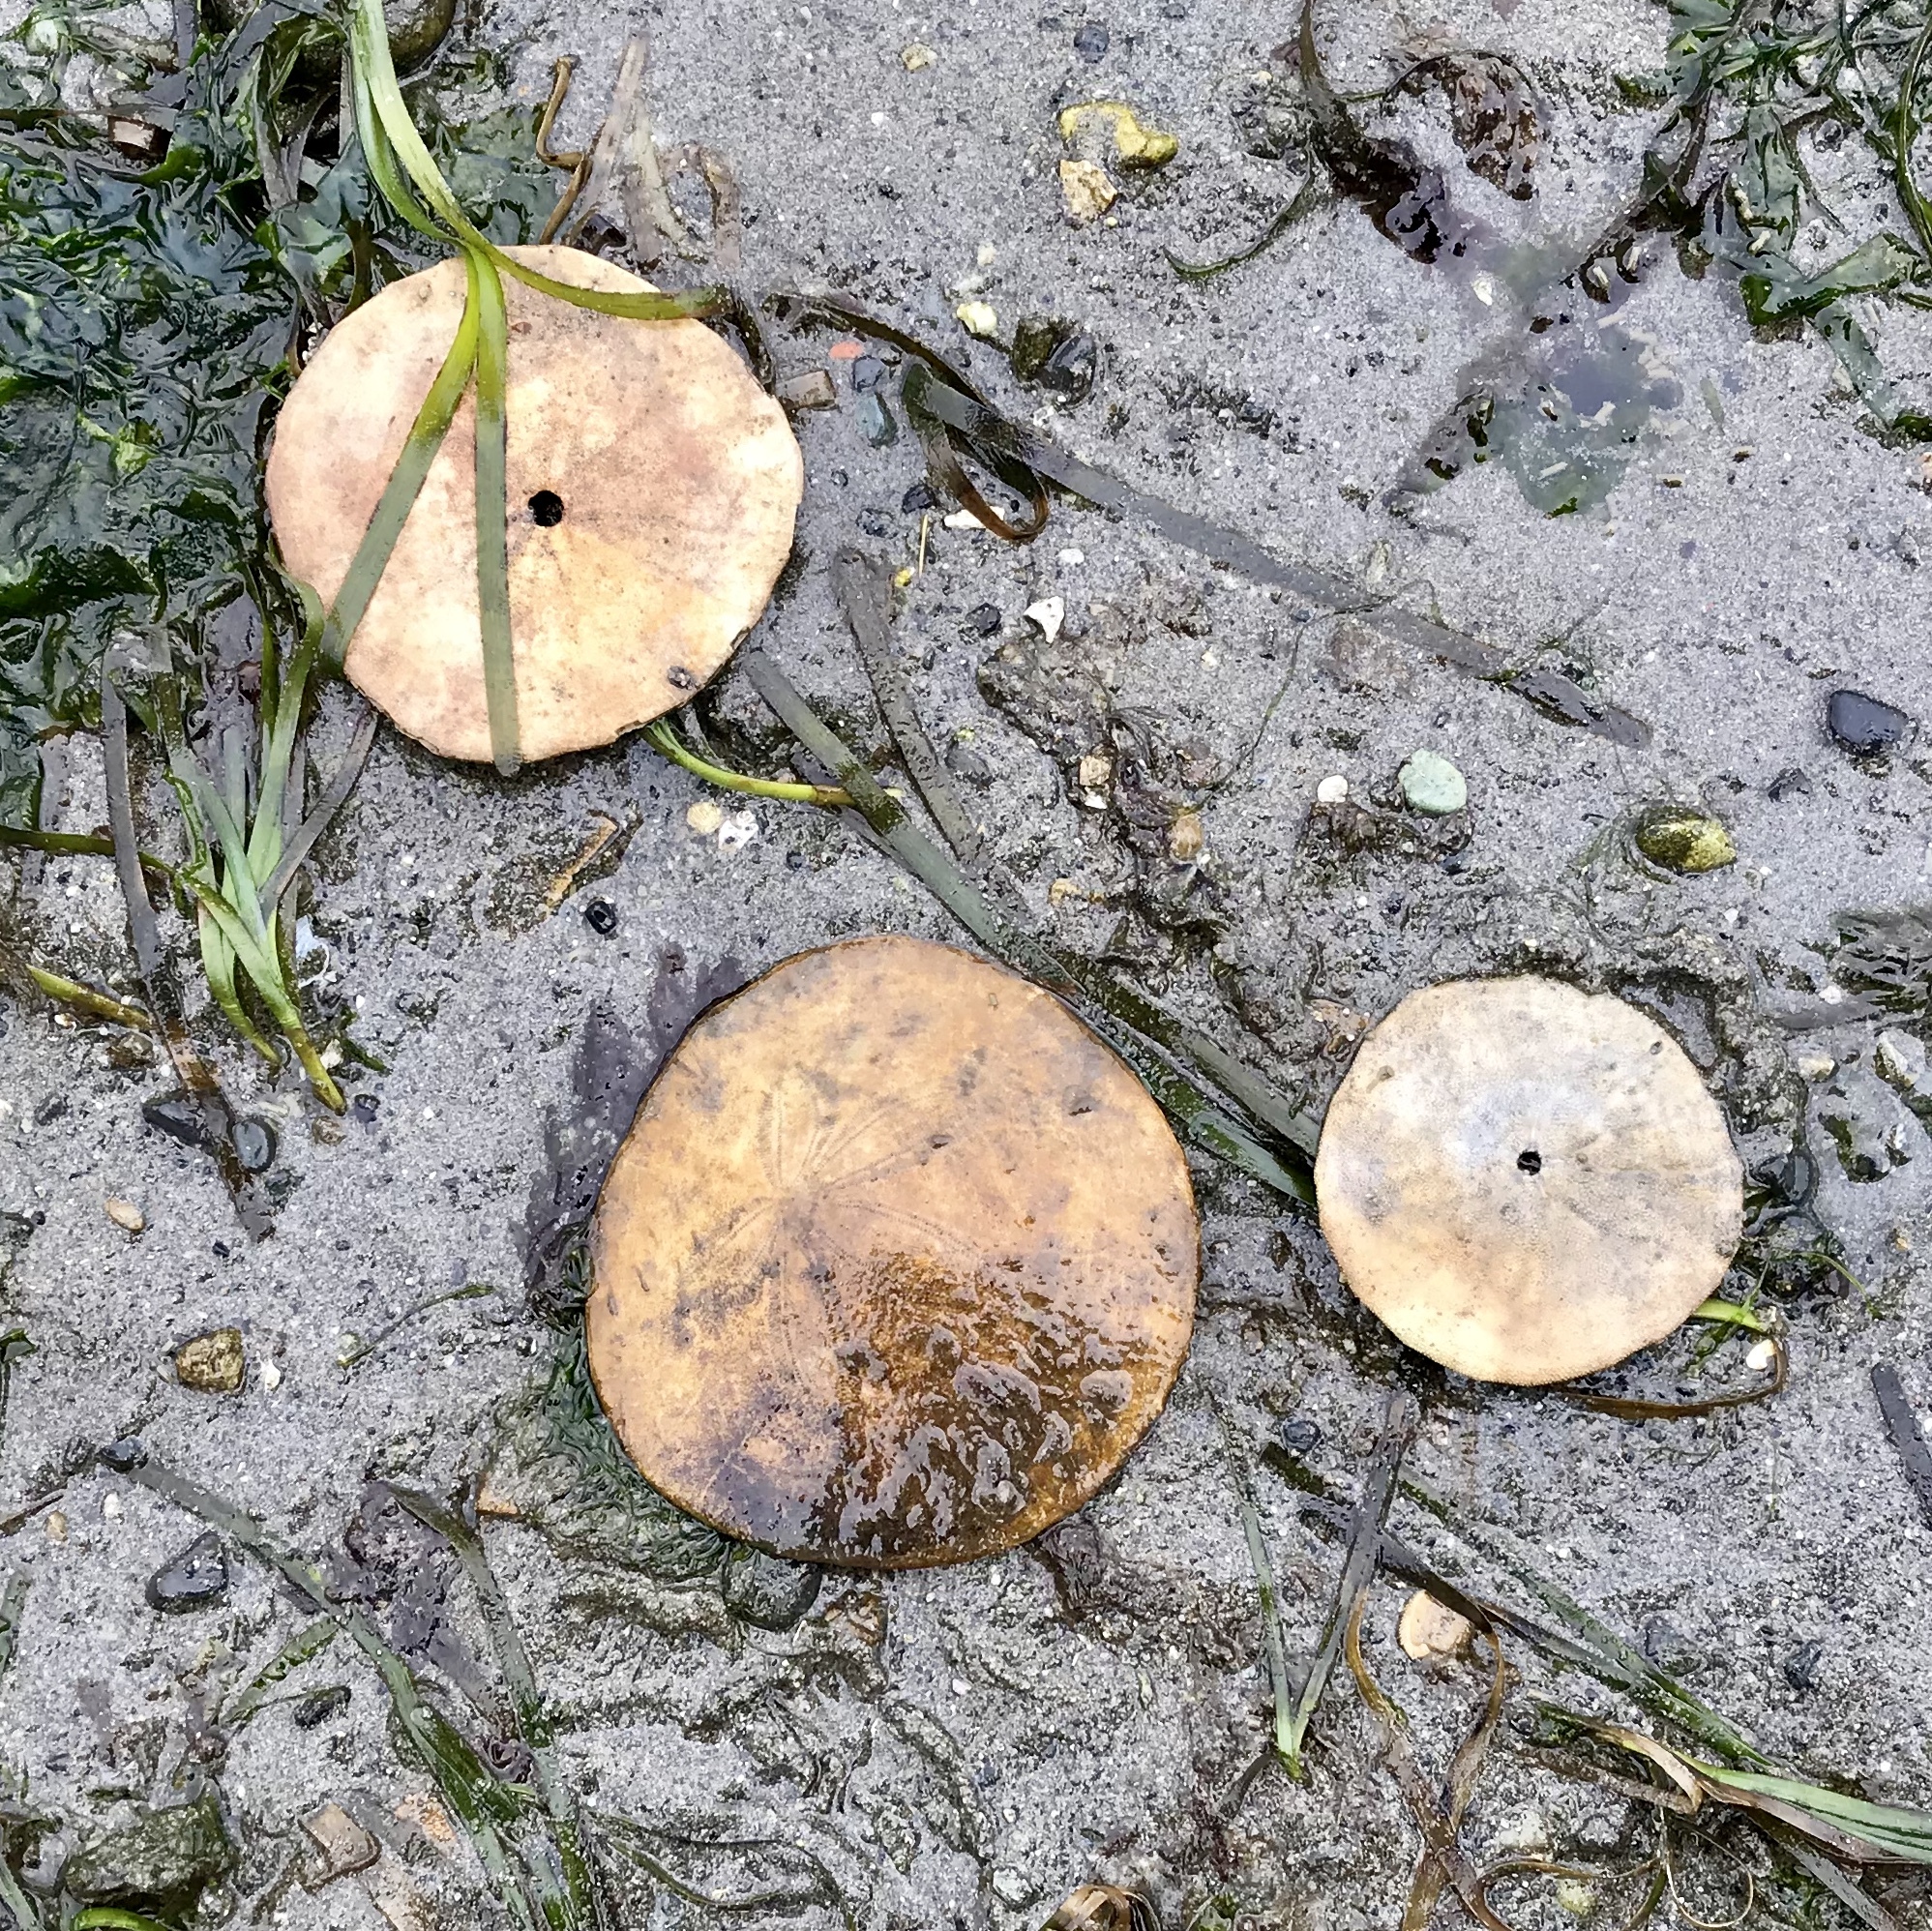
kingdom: Animalia
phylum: Echinodermata
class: Echinoidea
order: Echinolampadacea
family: Dendrasteridae
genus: Dendraster
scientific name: Dendraster excentricus
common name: Eccentric sand dollar sea urchin
